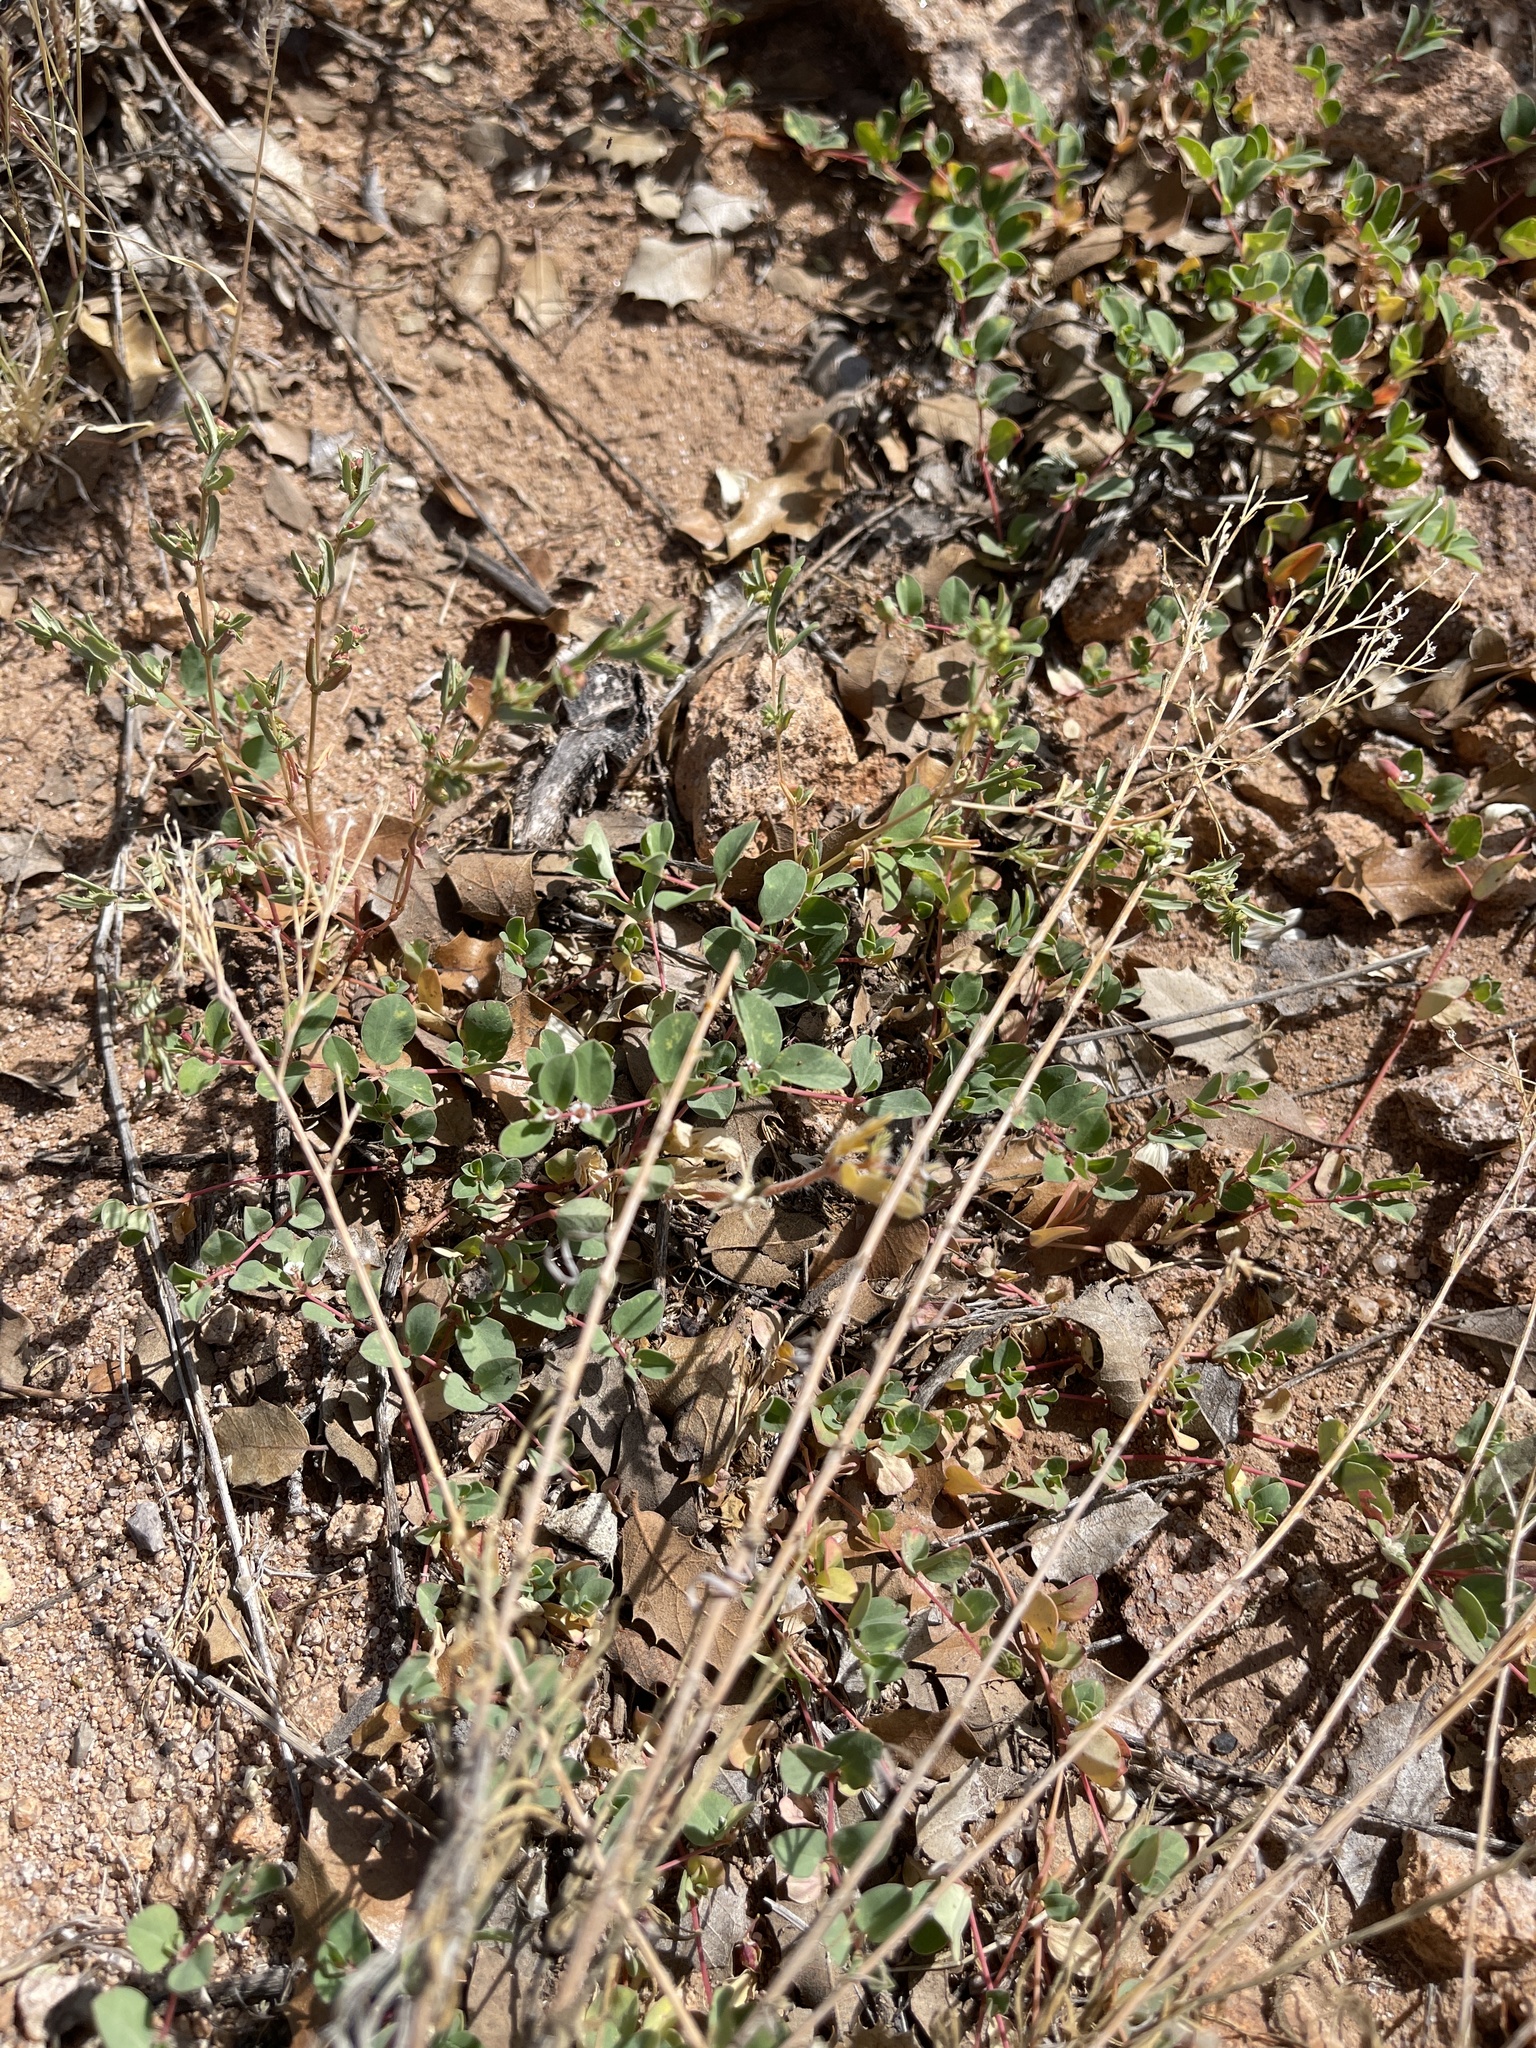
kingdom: Plantae
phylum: Tracheophyta
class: Magnoliopsida
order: Malpighiales
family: Euphorbiaceae
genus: Euphorbia
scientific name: Euphorbia albomarginata
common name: Whitemargin sandmat
